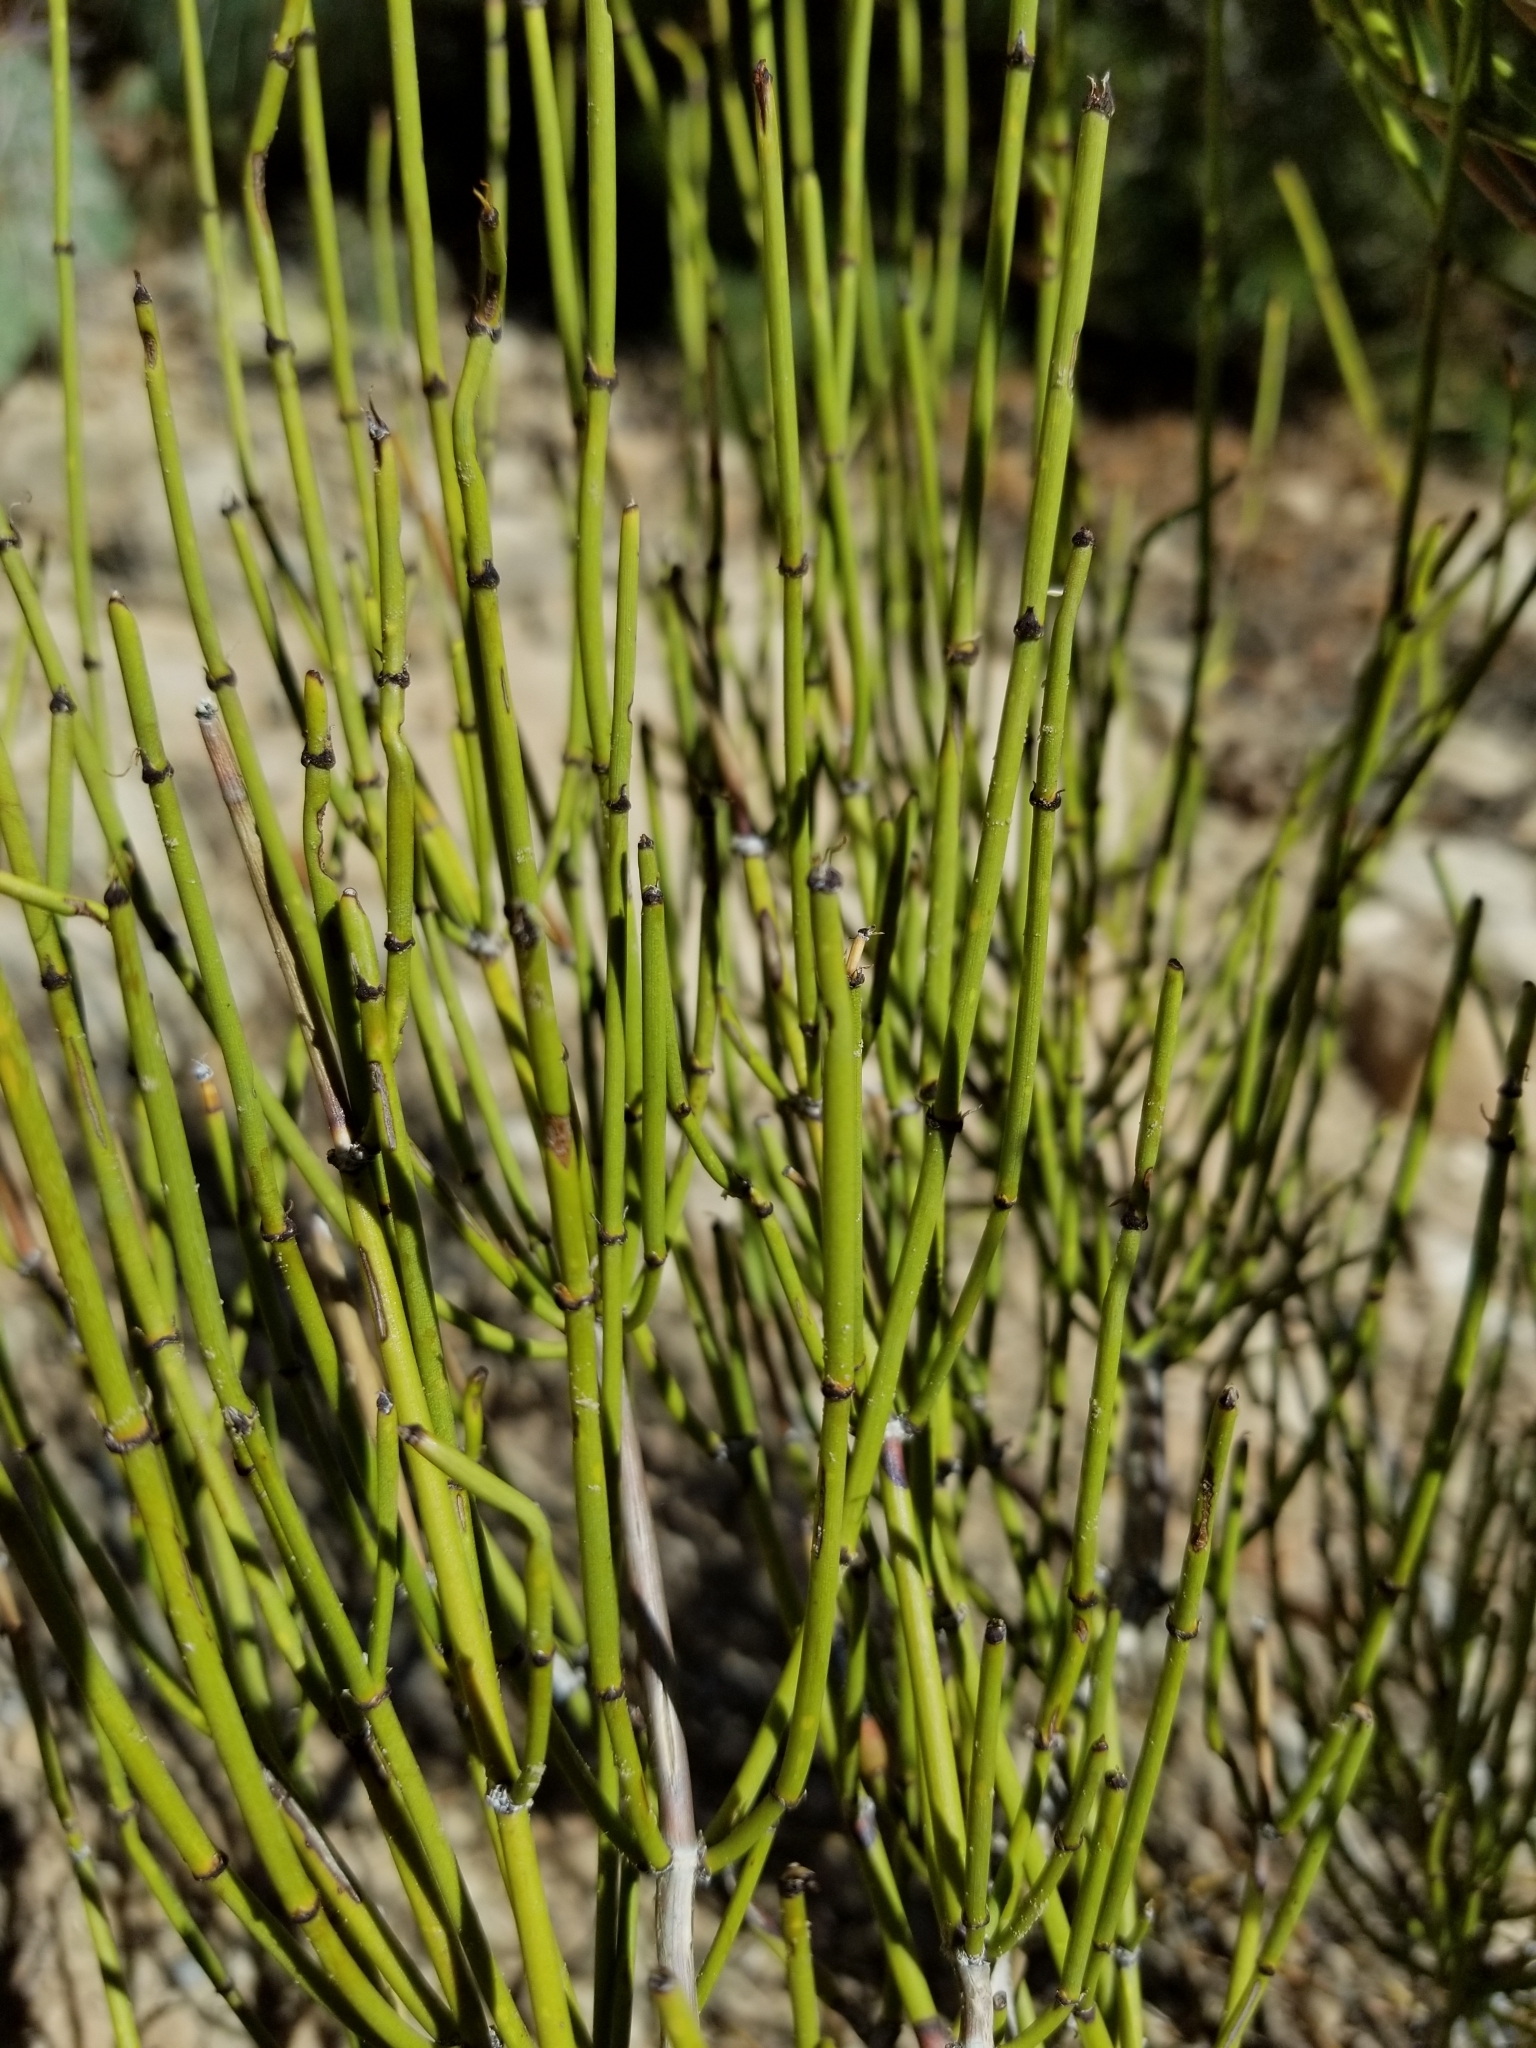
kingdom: Plantae
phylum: Tracheophyta
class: Gnetopsida
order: Ephedrales
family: Ephedraceae
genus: Ephedra
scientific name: Ephedra viridis
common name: Green ephedra
